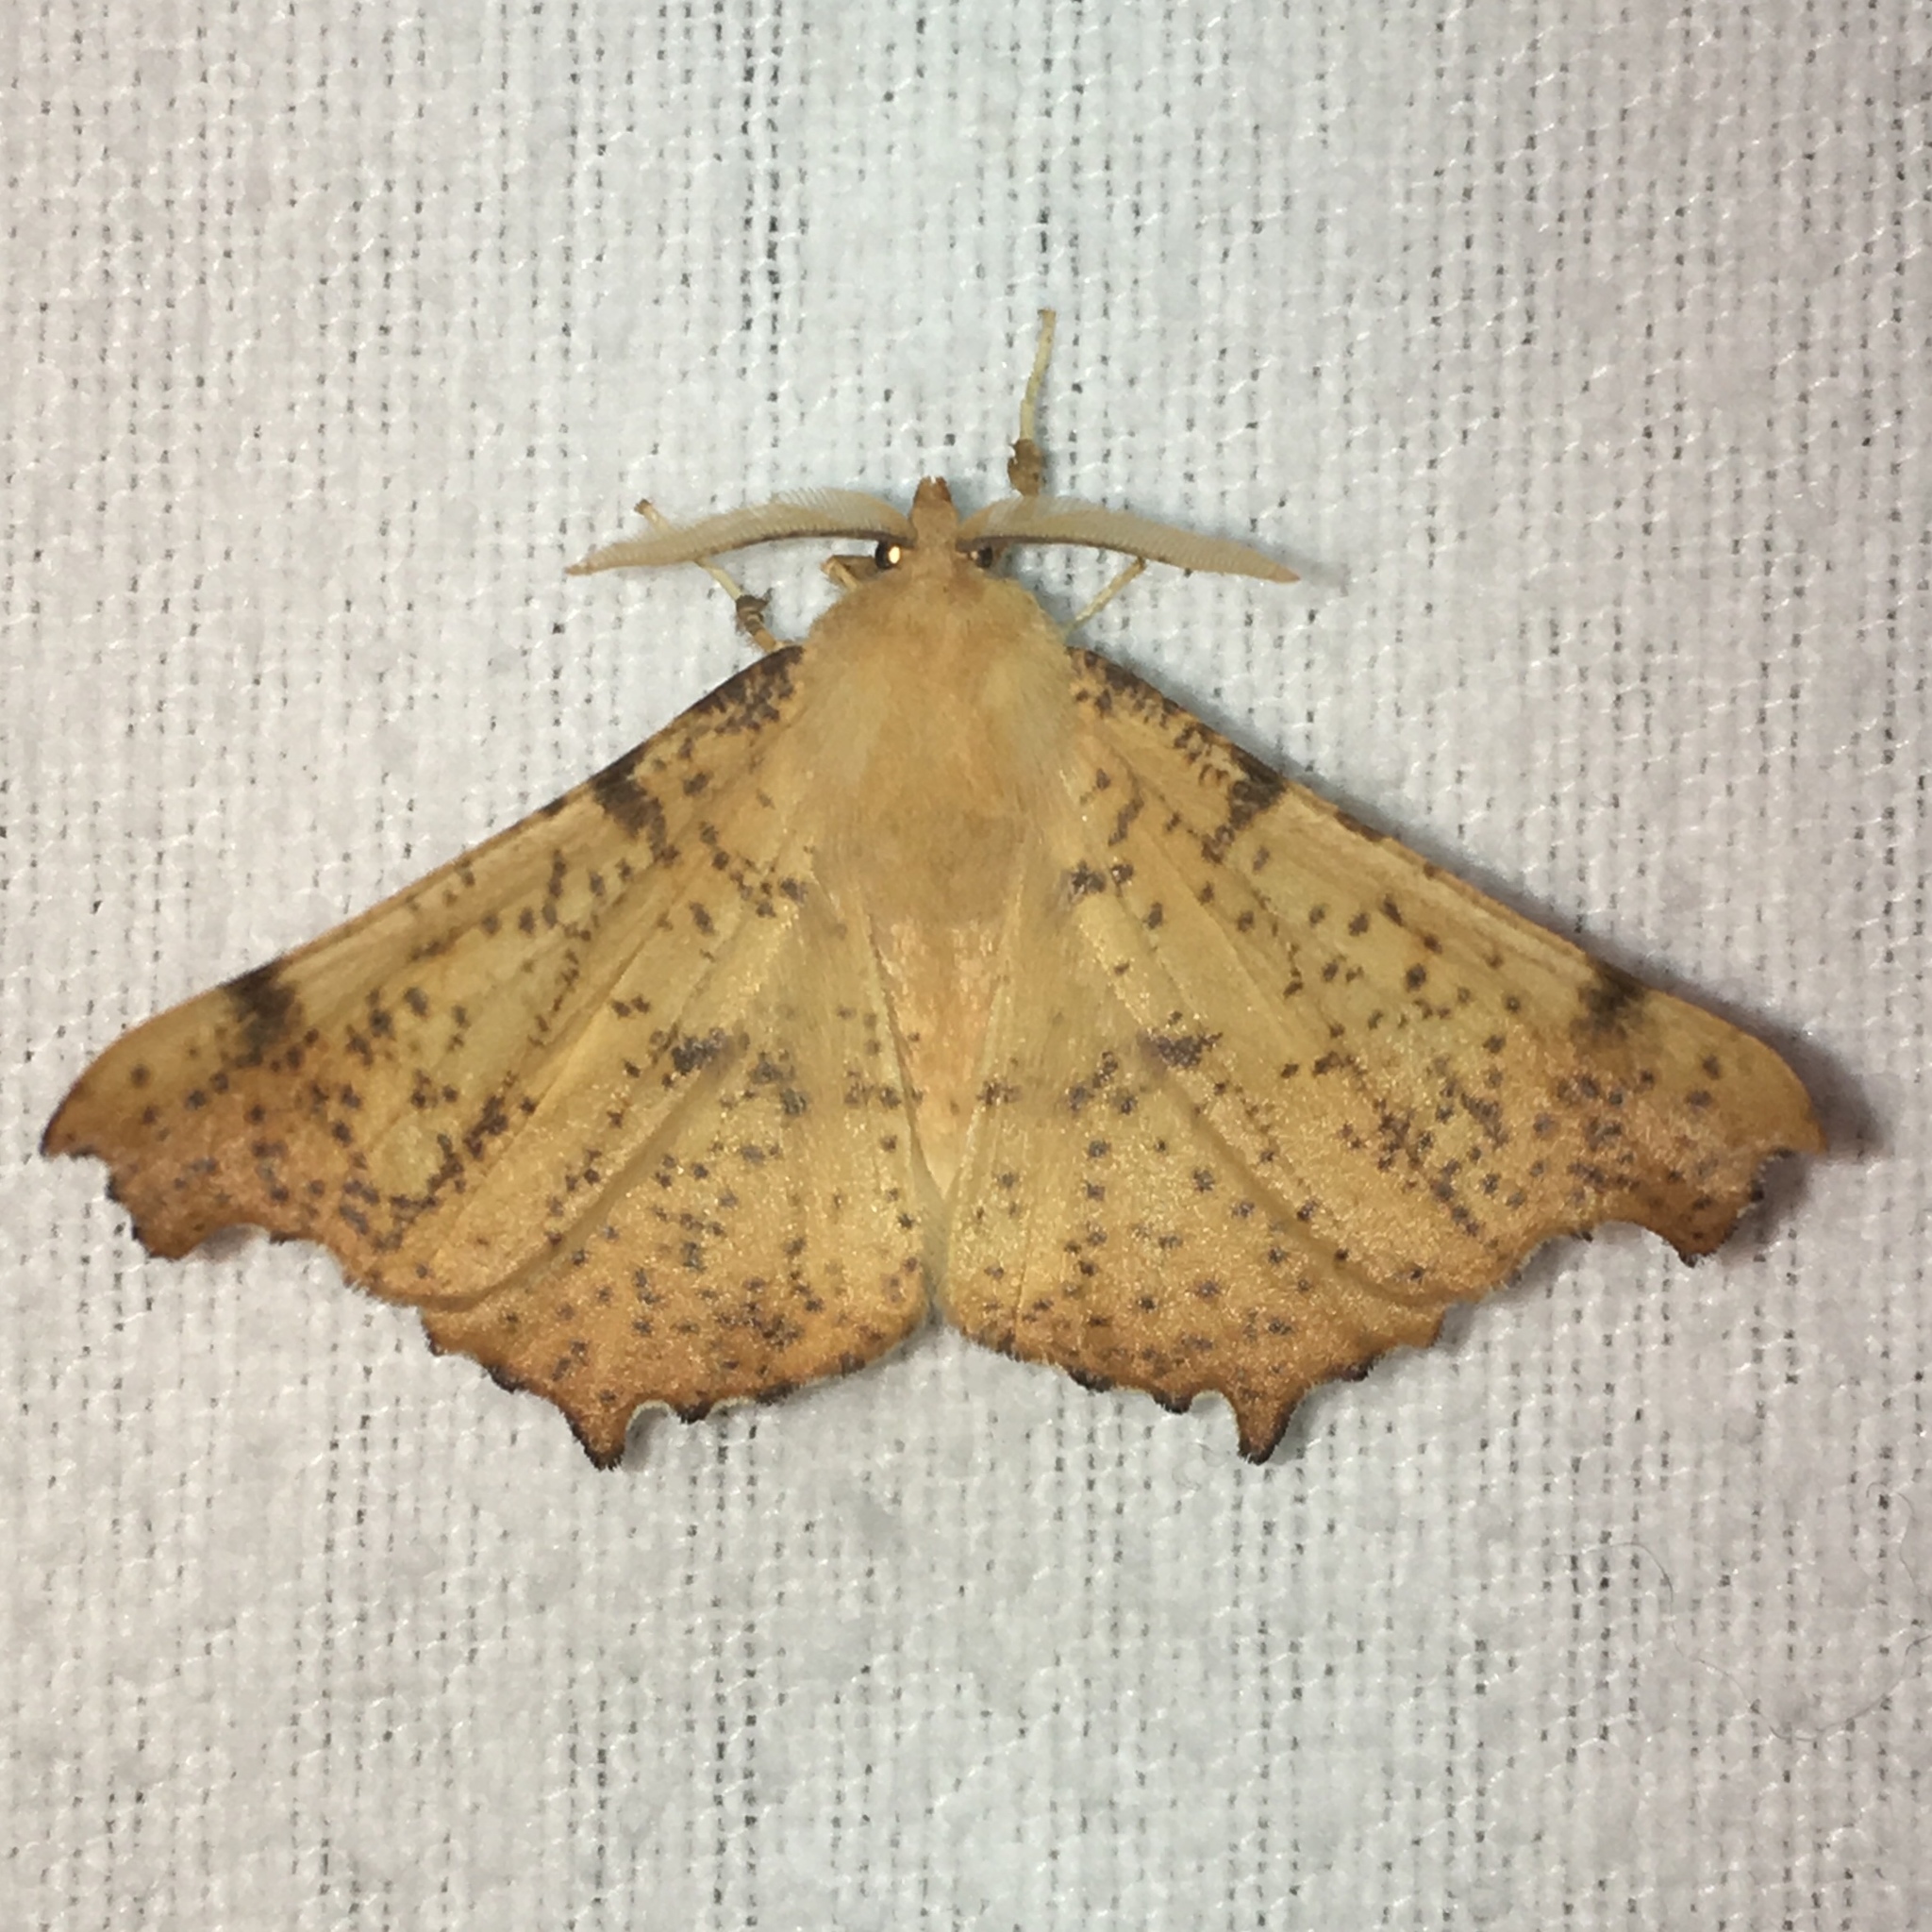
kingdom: Animalia
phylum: Arthropoda
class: Insecta
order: Lepidoptera
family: Geometridae
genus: Ennomos
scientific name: Ennomos magnaria
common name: Maple spanworm
